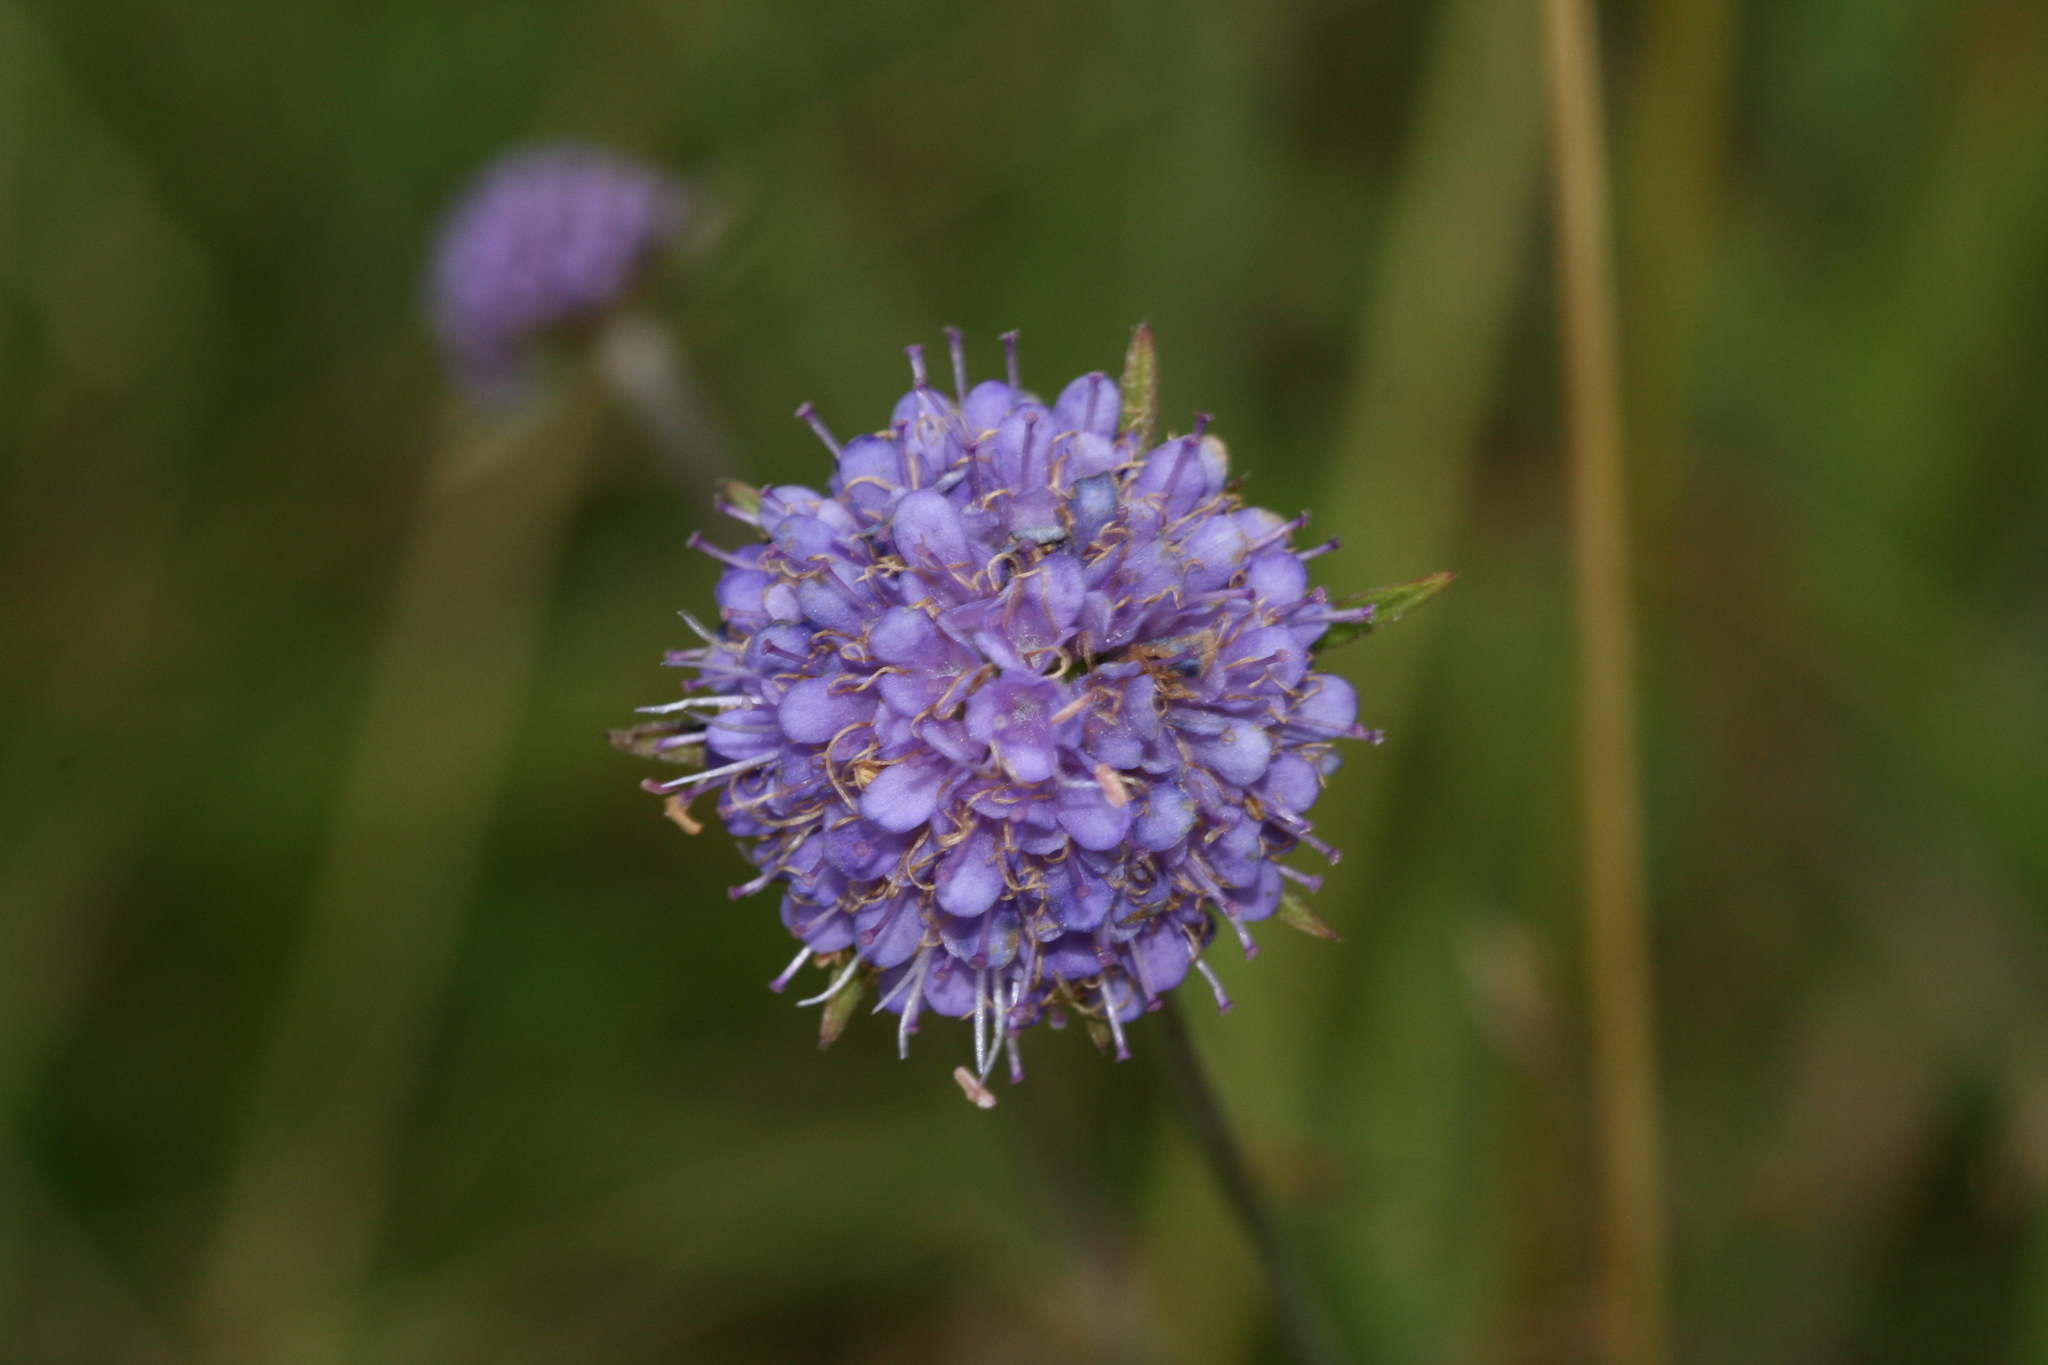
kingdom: Plantae
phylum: Tracheophyta
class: Magnoliopsida
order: Dipsacales
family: Caprifoliaceae
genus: Succisa
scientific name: Succisa pratensis
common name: Devil's-bit
